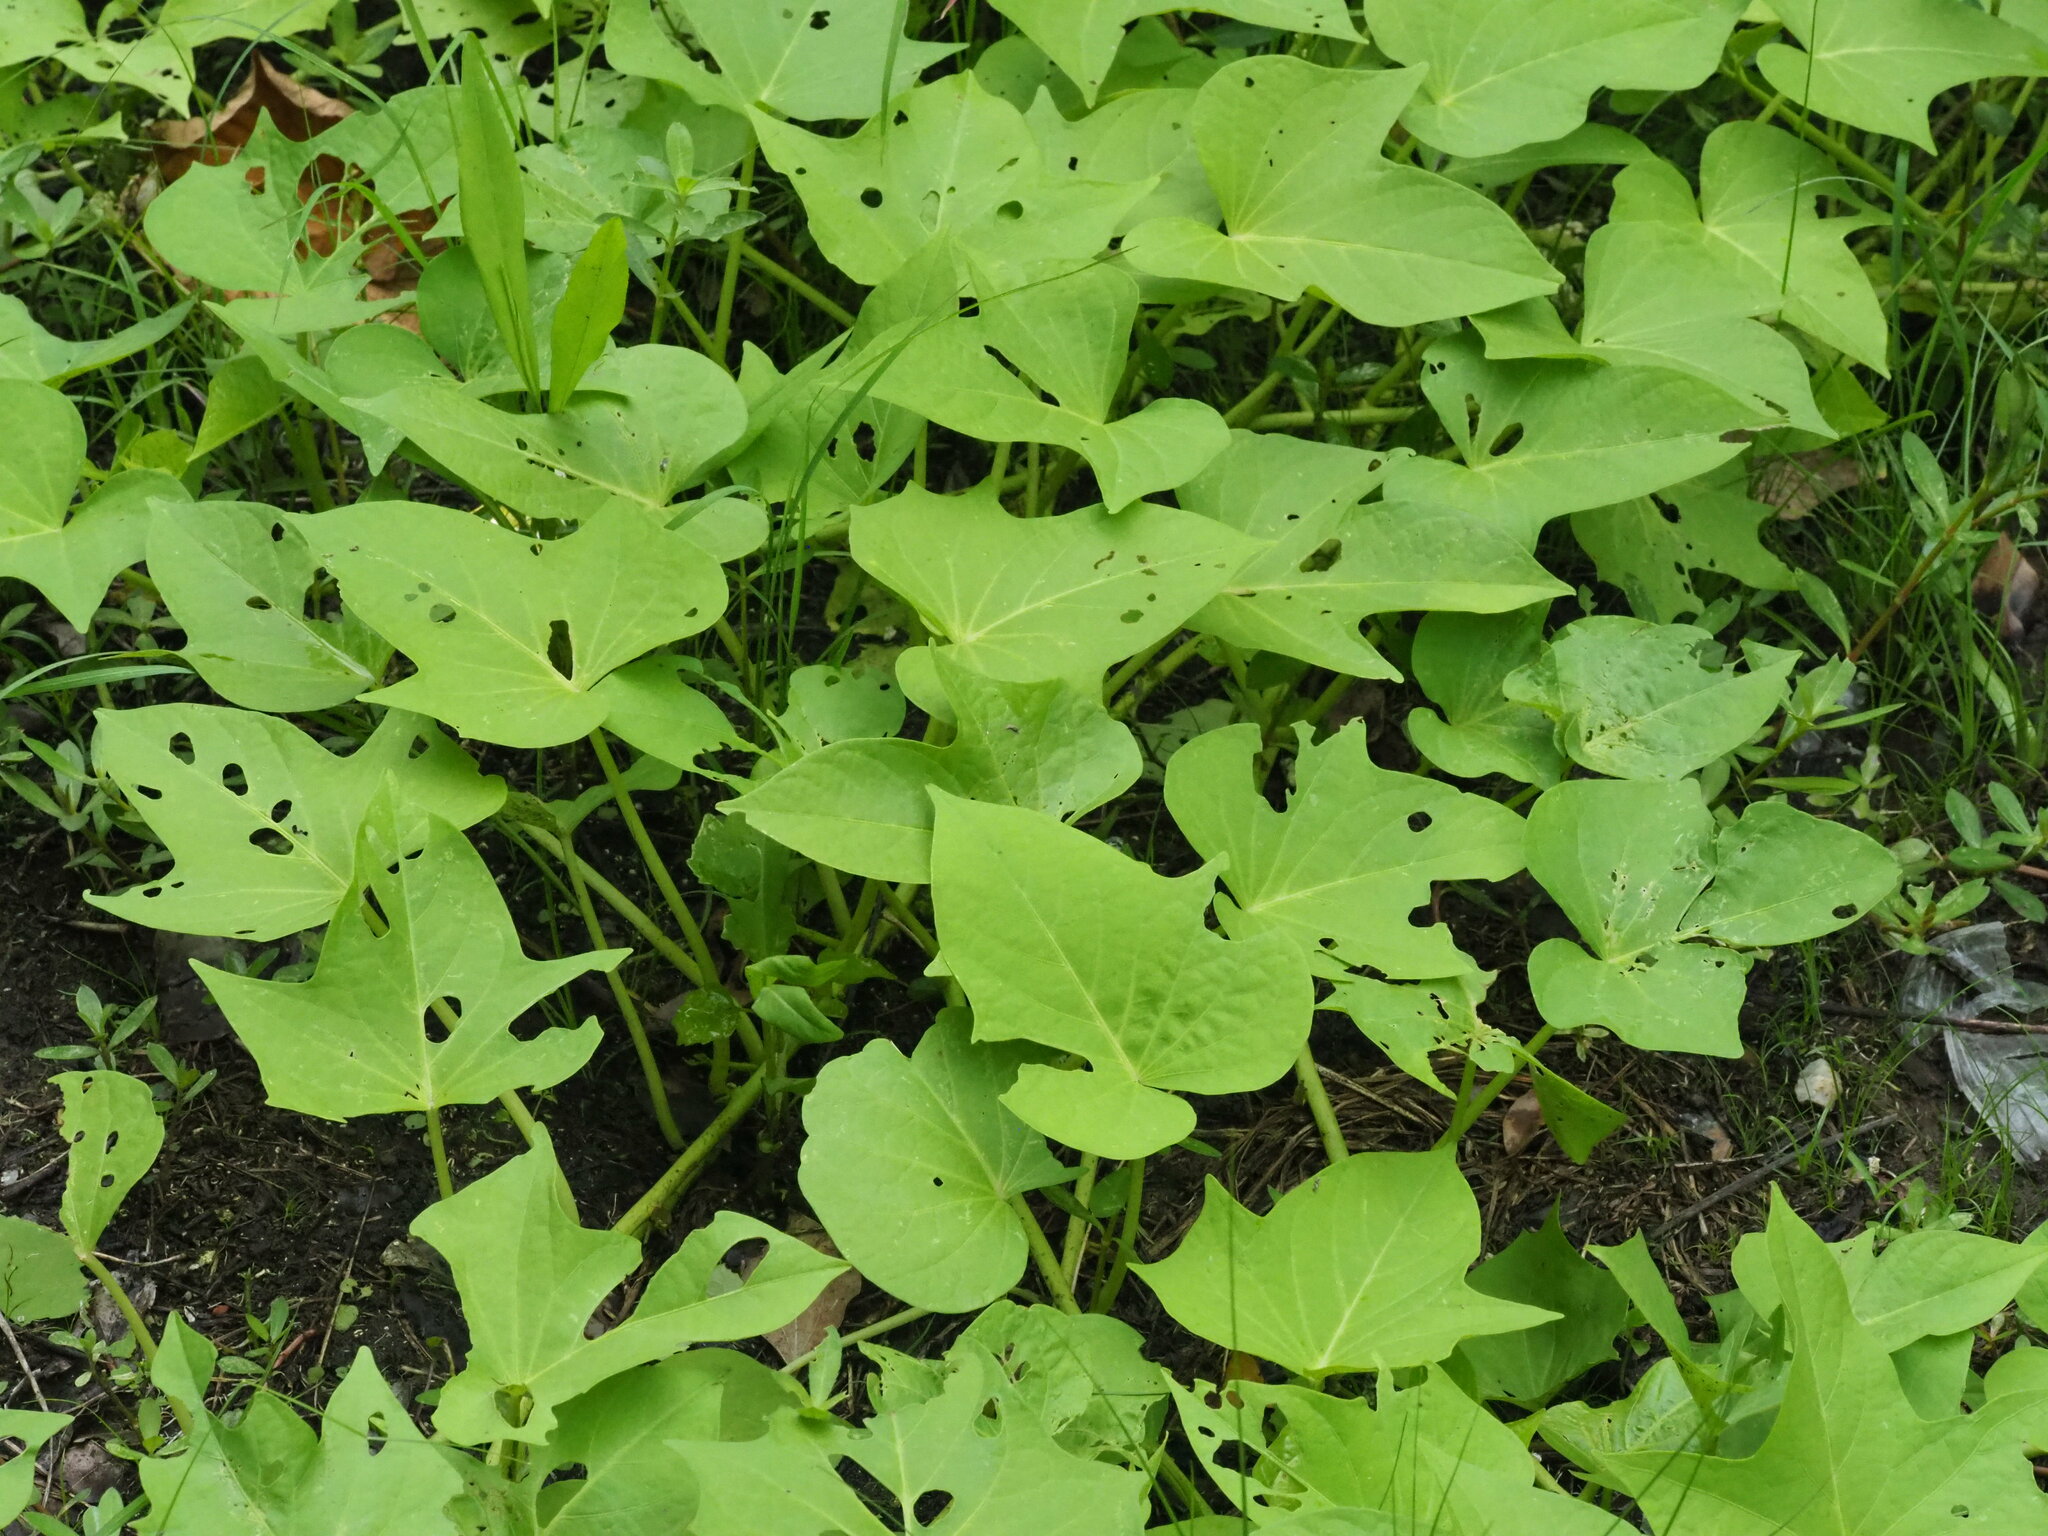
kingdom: Plantae
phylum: Tracheophyta
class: Magnoliopsida
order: Solanales
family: Convolvulaceae
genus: Ipomoea
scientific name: Ipomoea batatas
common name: Sweet-potato
